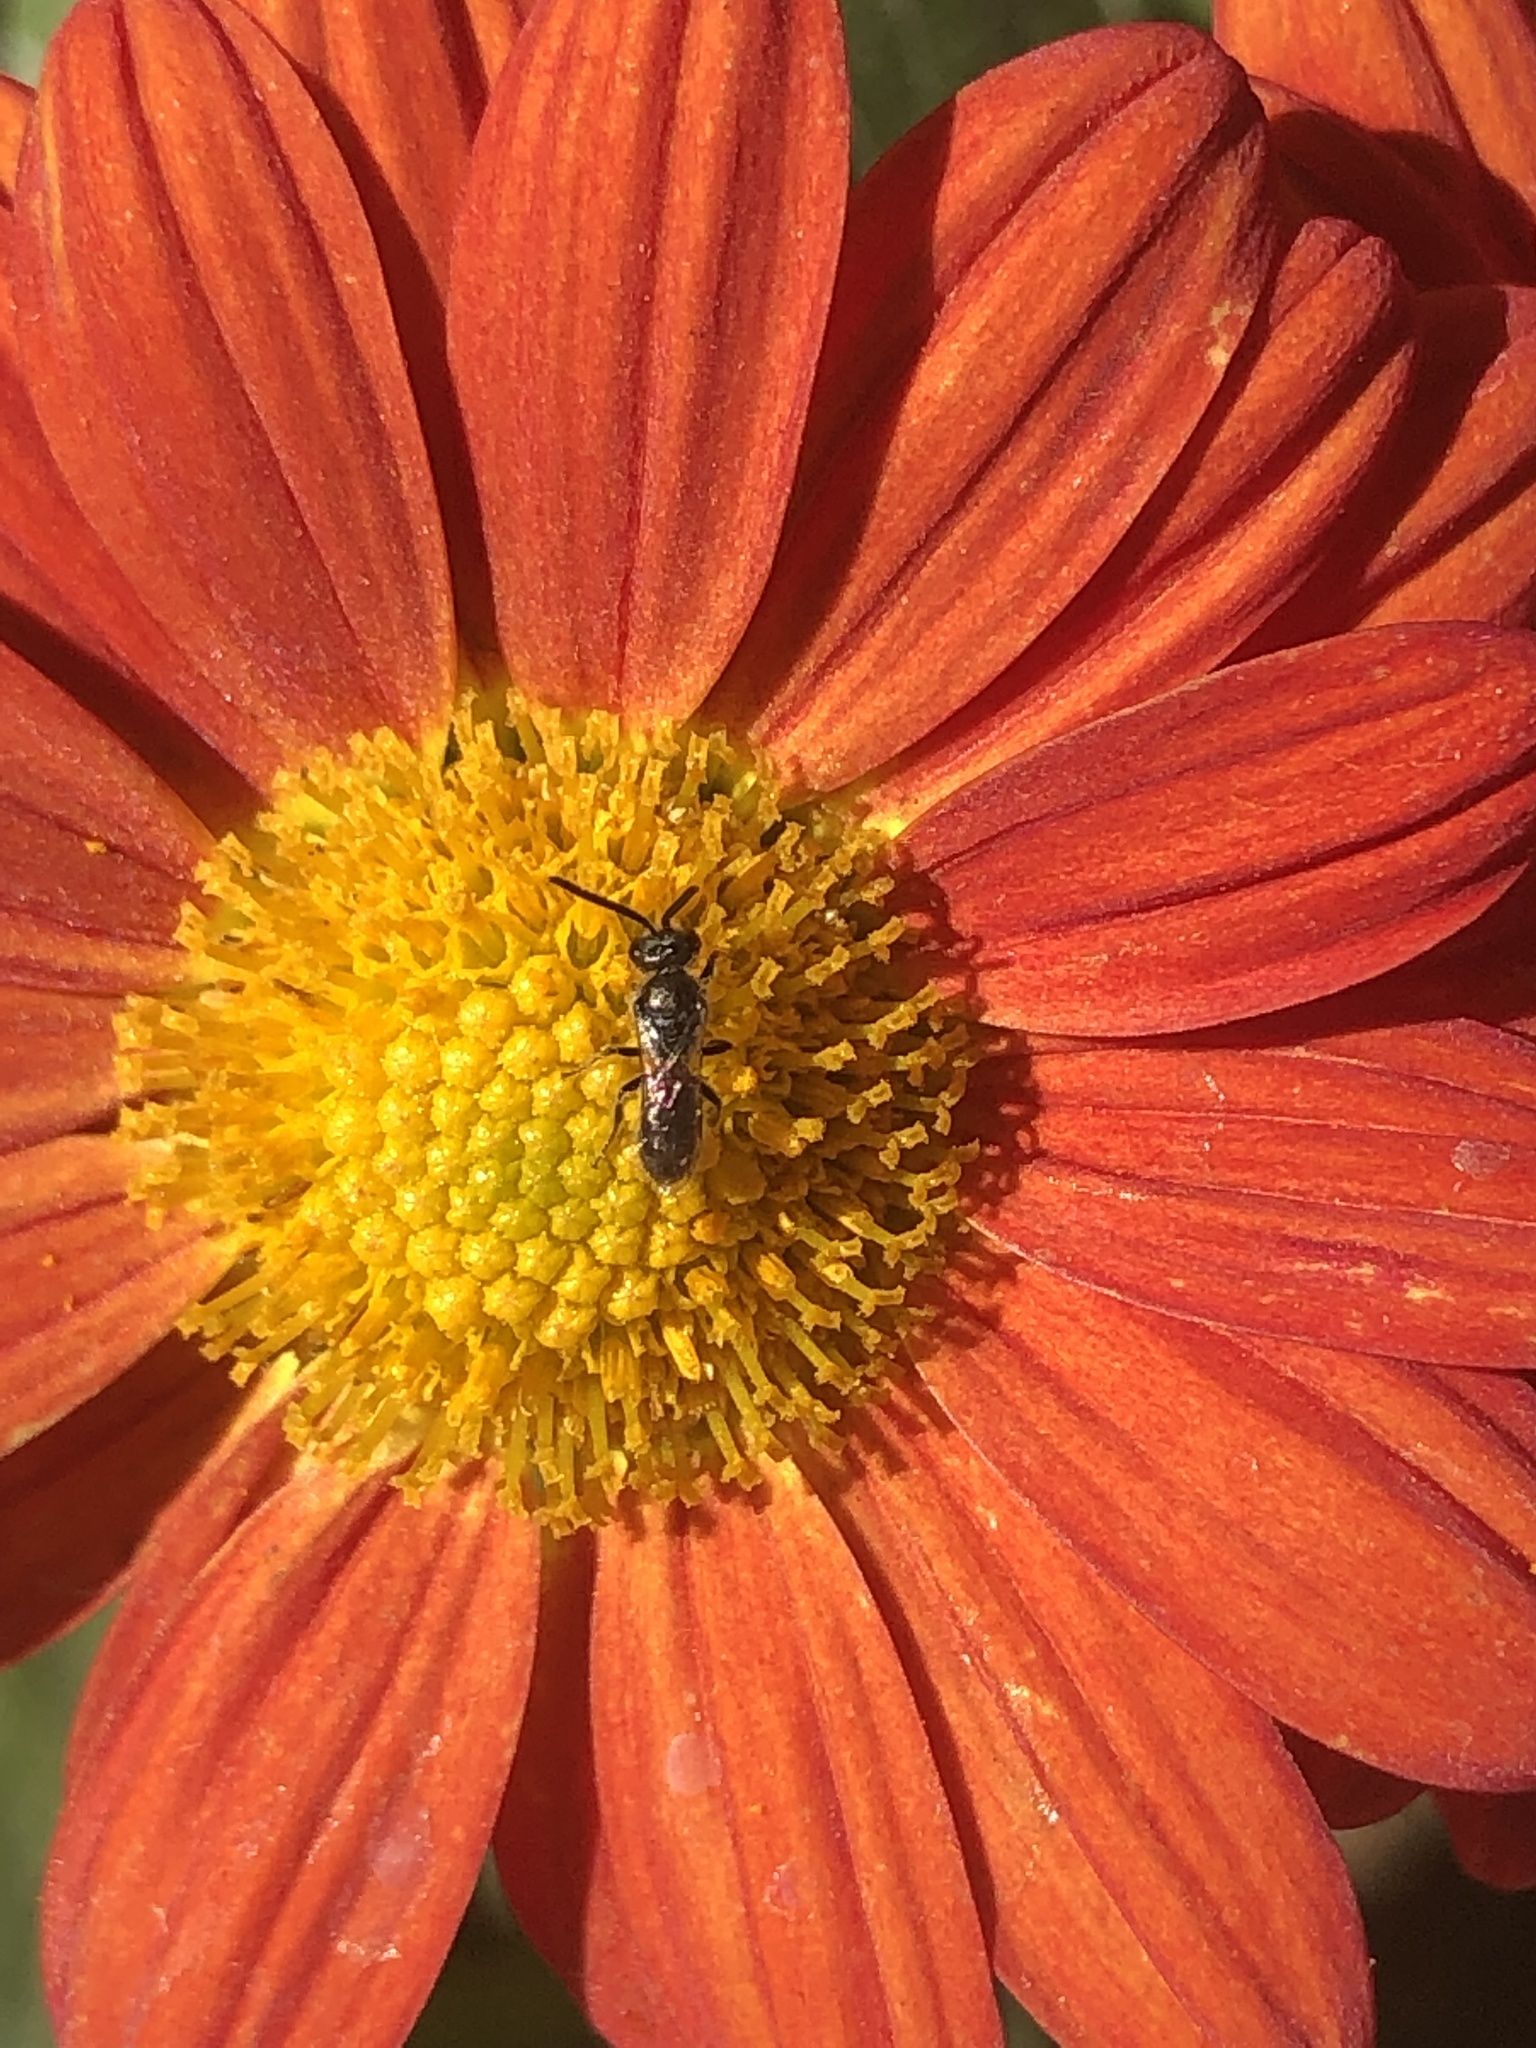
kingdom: Animalia
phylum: Arthropoda
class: Insecta
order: Hymenoptera
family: Halictidae
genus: Dialictus
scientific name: Dialictus
